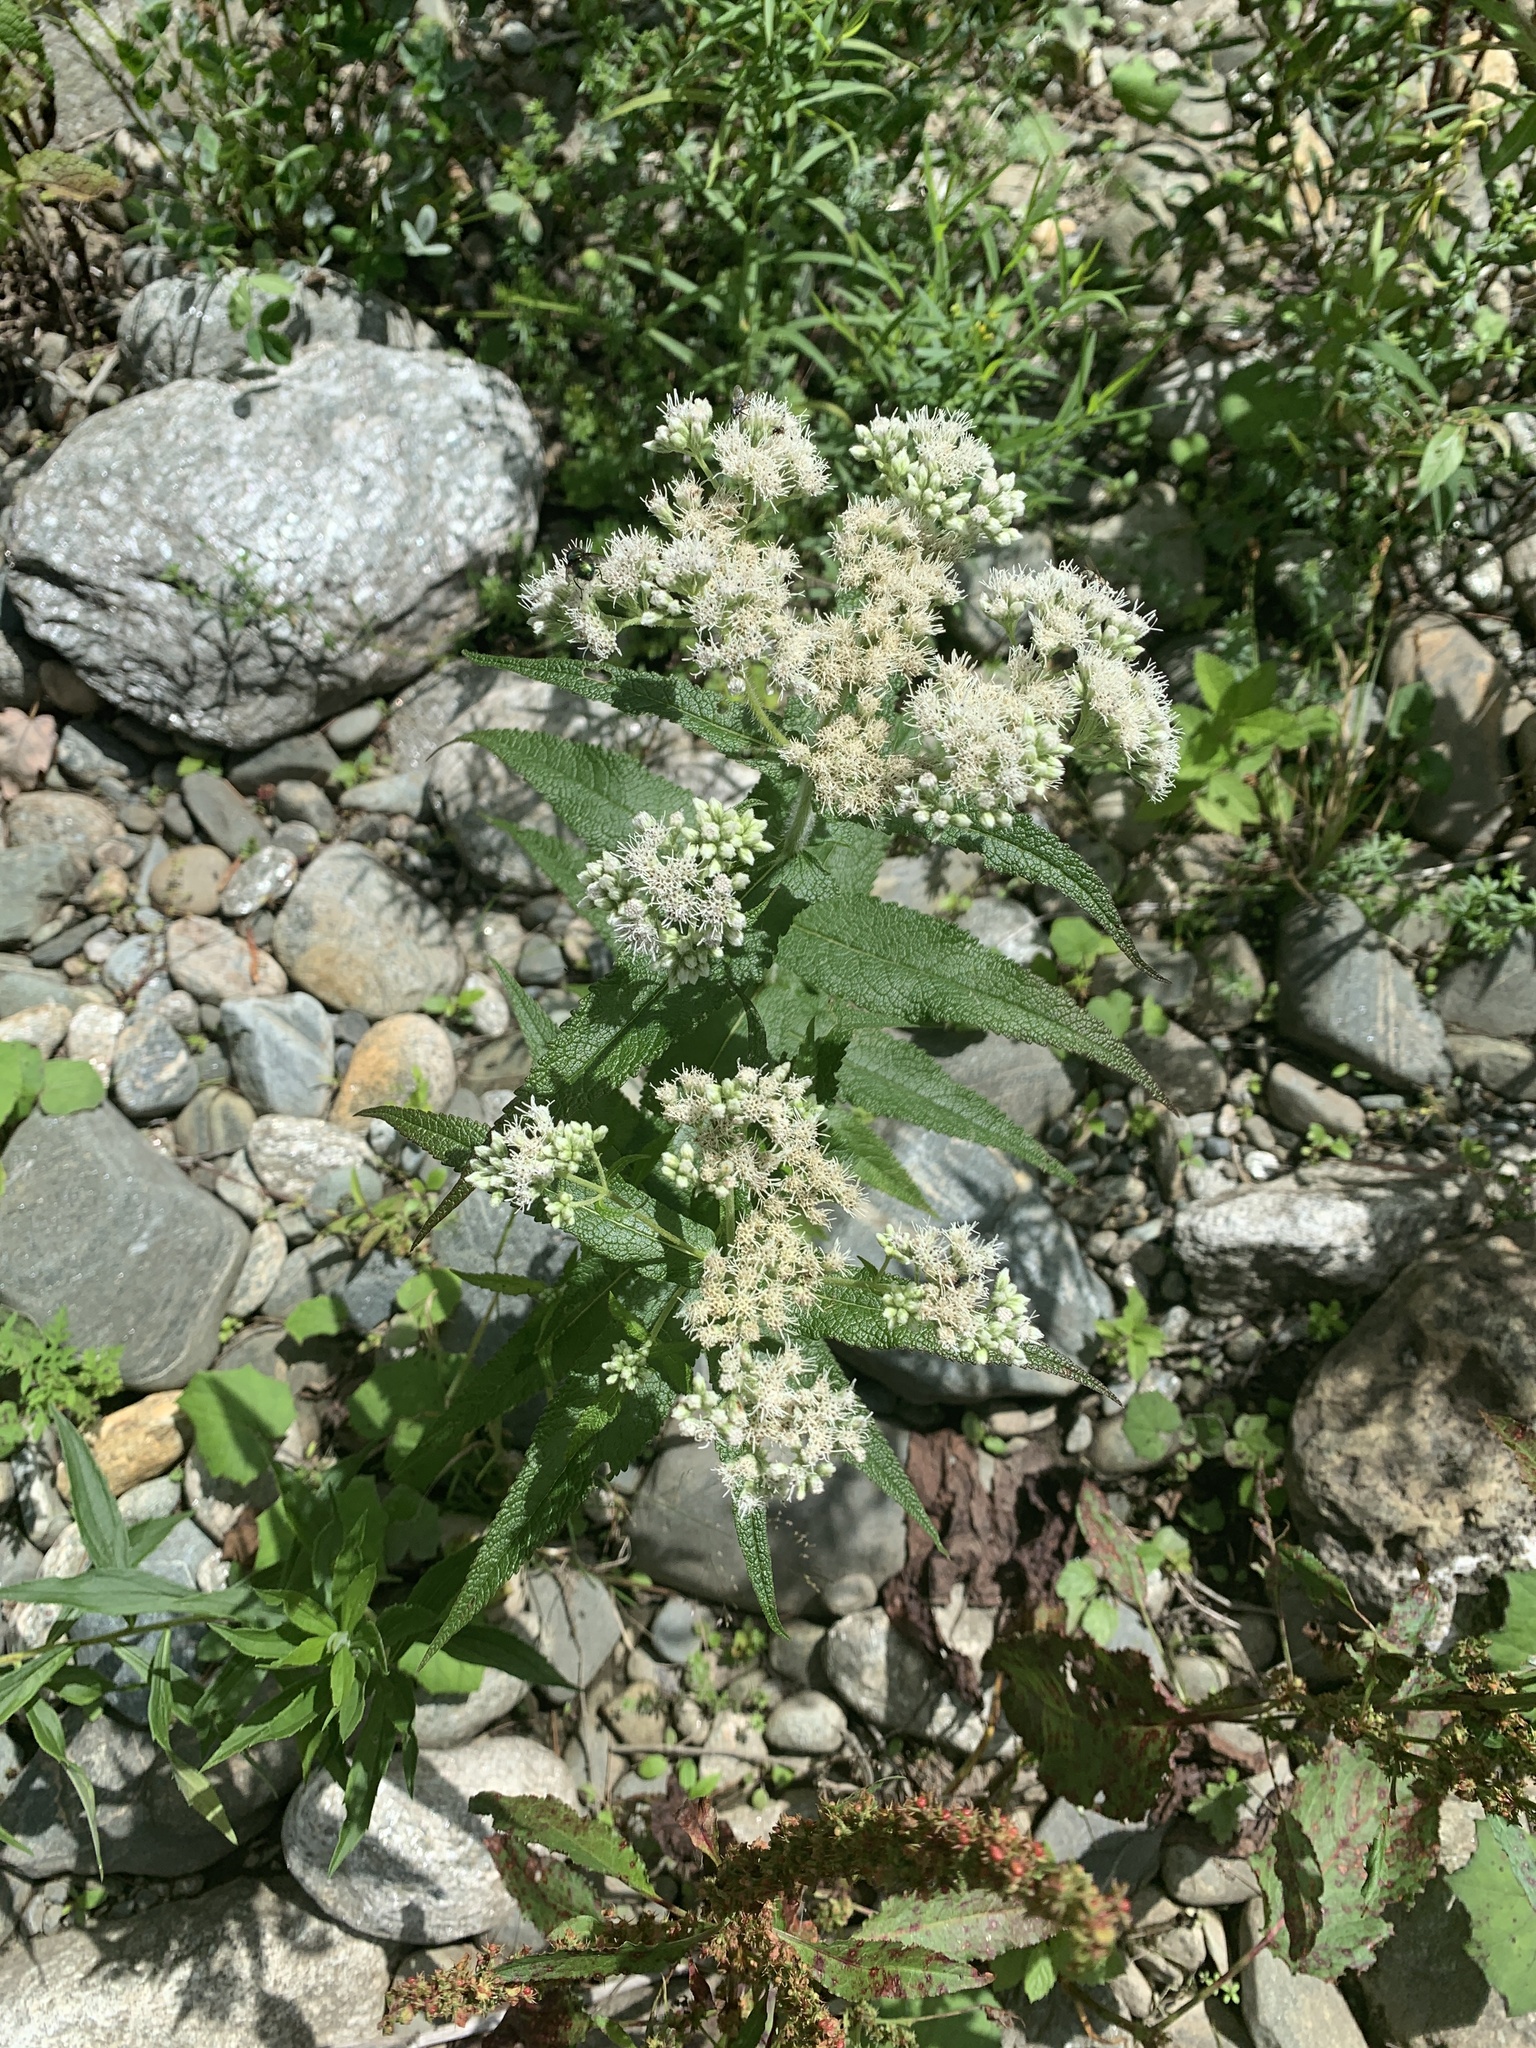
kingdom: Plantae
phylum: Tracheophyta
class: Magnoliopsida
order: Asterales
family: Asteraceae
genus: Ageratina
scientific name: Ageratina altissima
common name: White snakeroot
